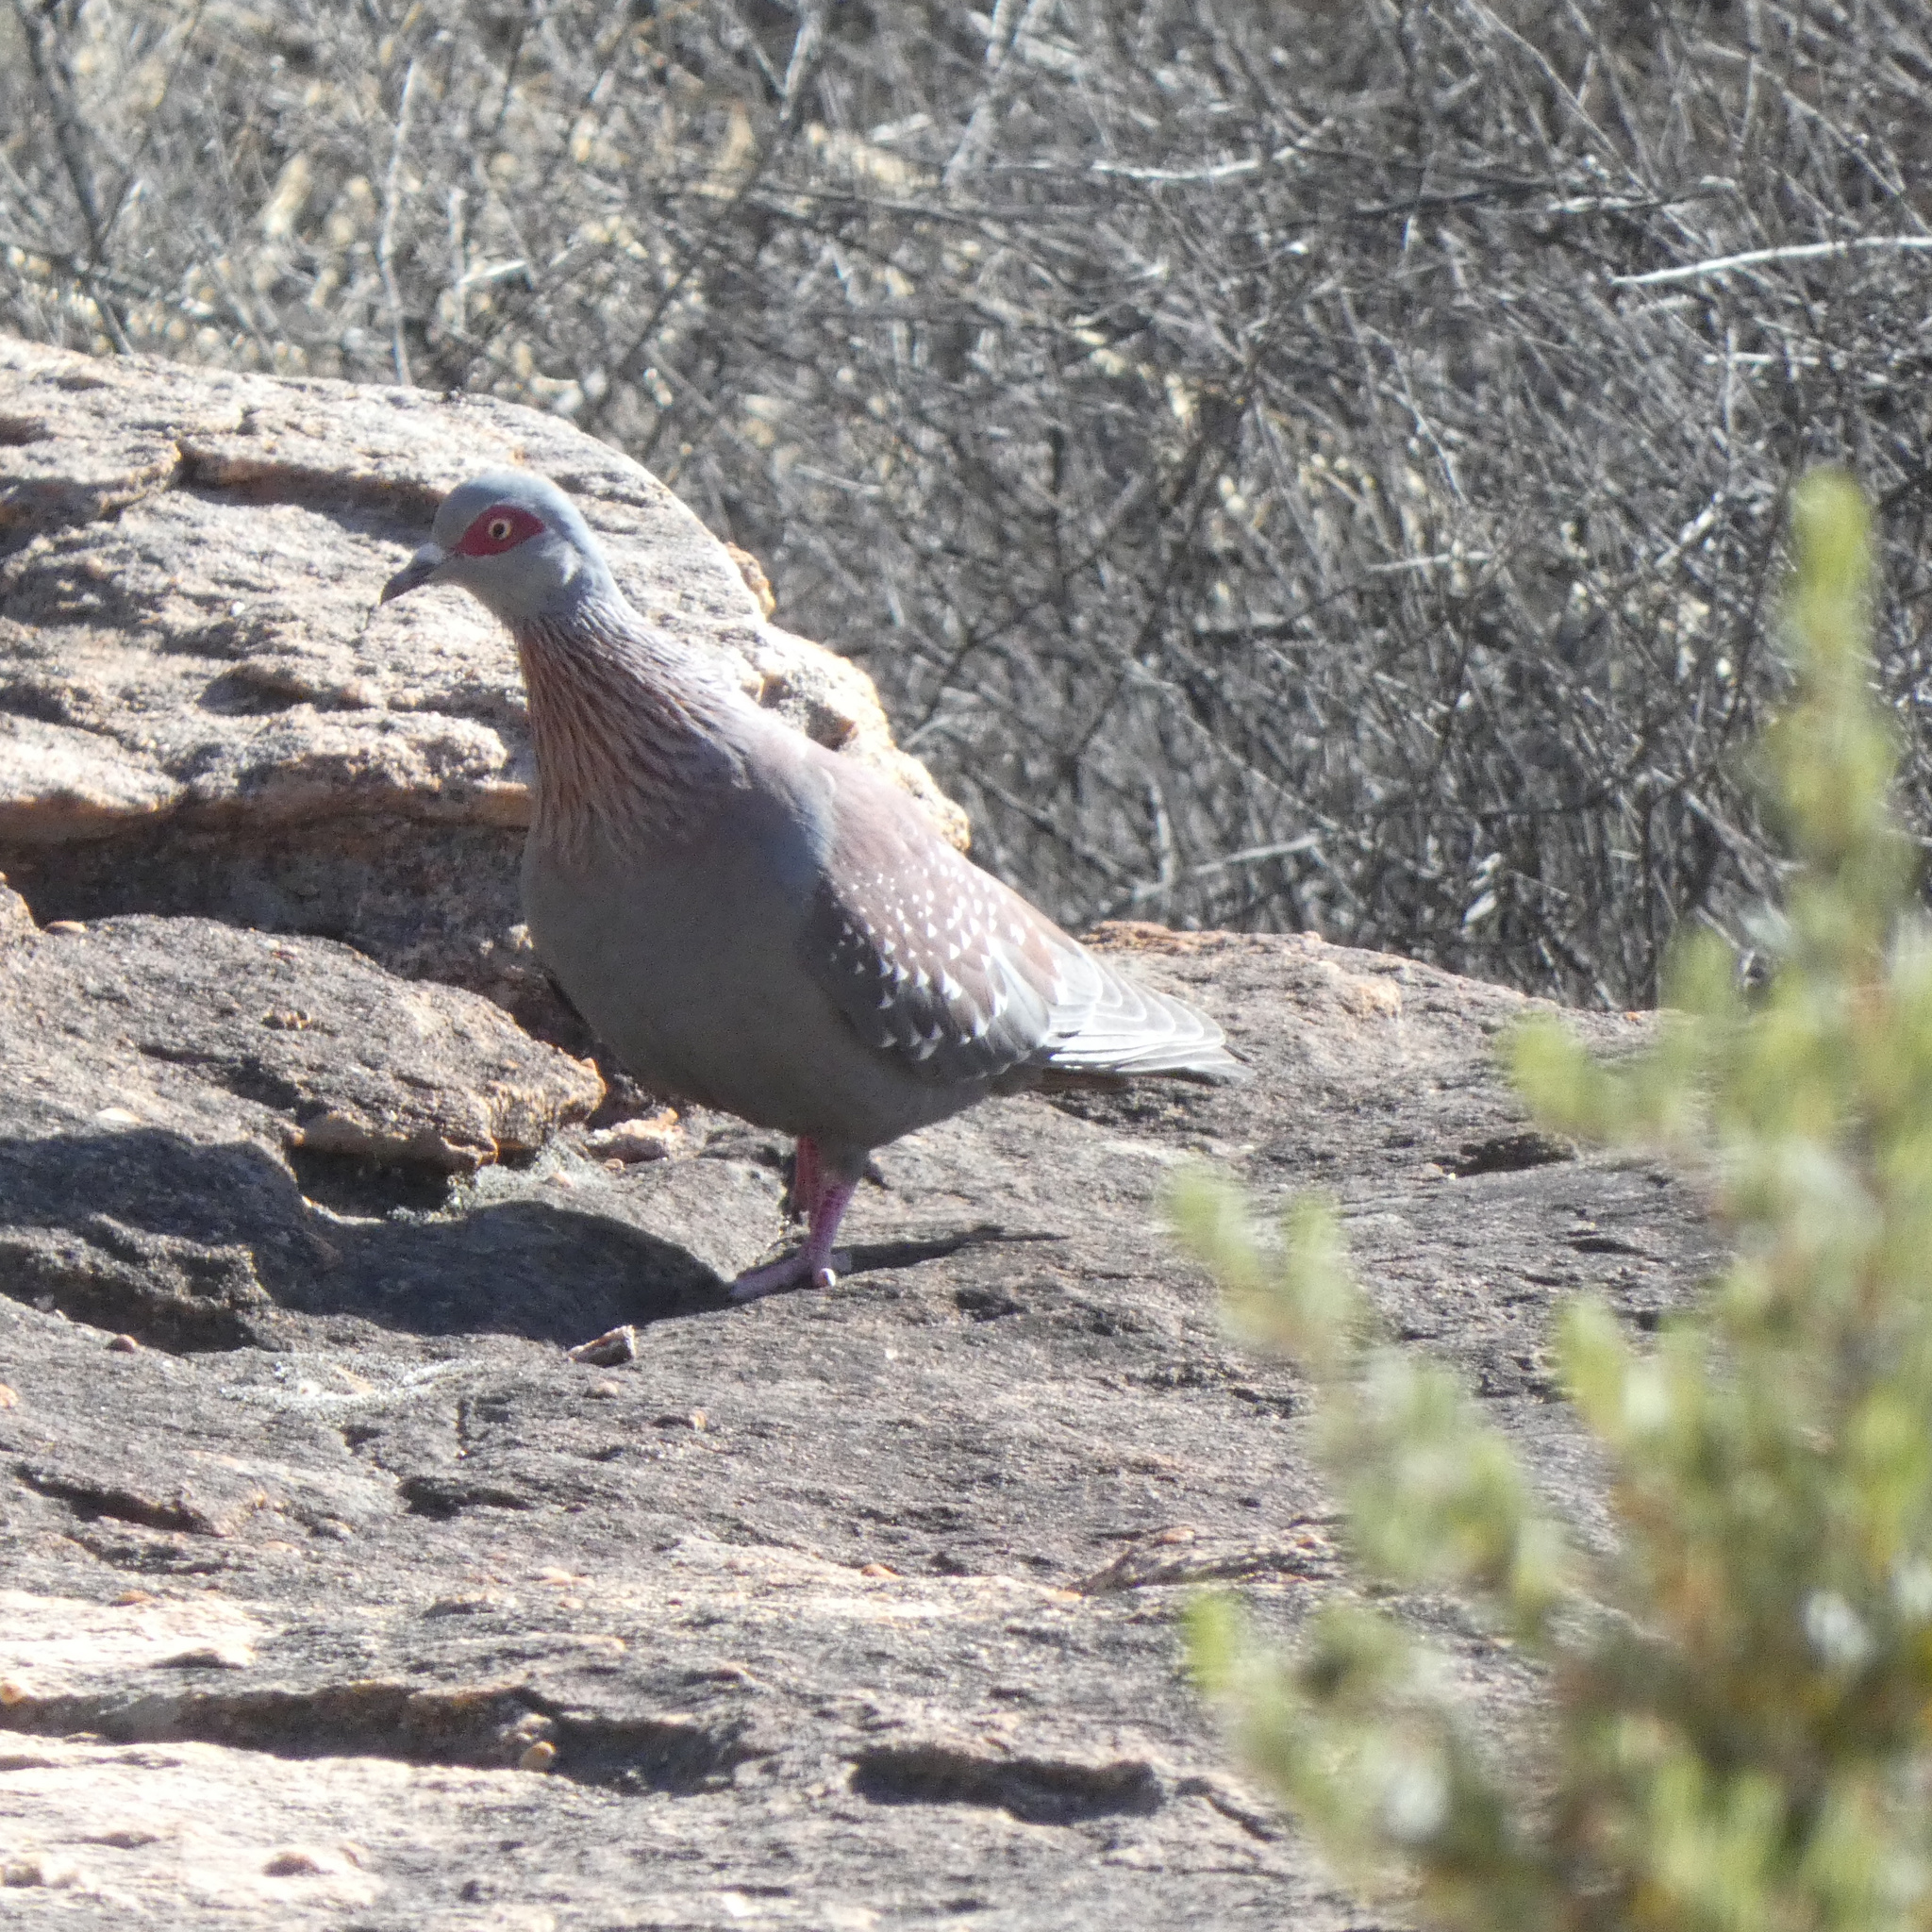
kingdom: Animalia
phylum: Chordata
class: Aves
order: Columbiformes
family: Columbidae
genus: Columba
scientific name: Columba guinea
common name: Speckled pigeon
